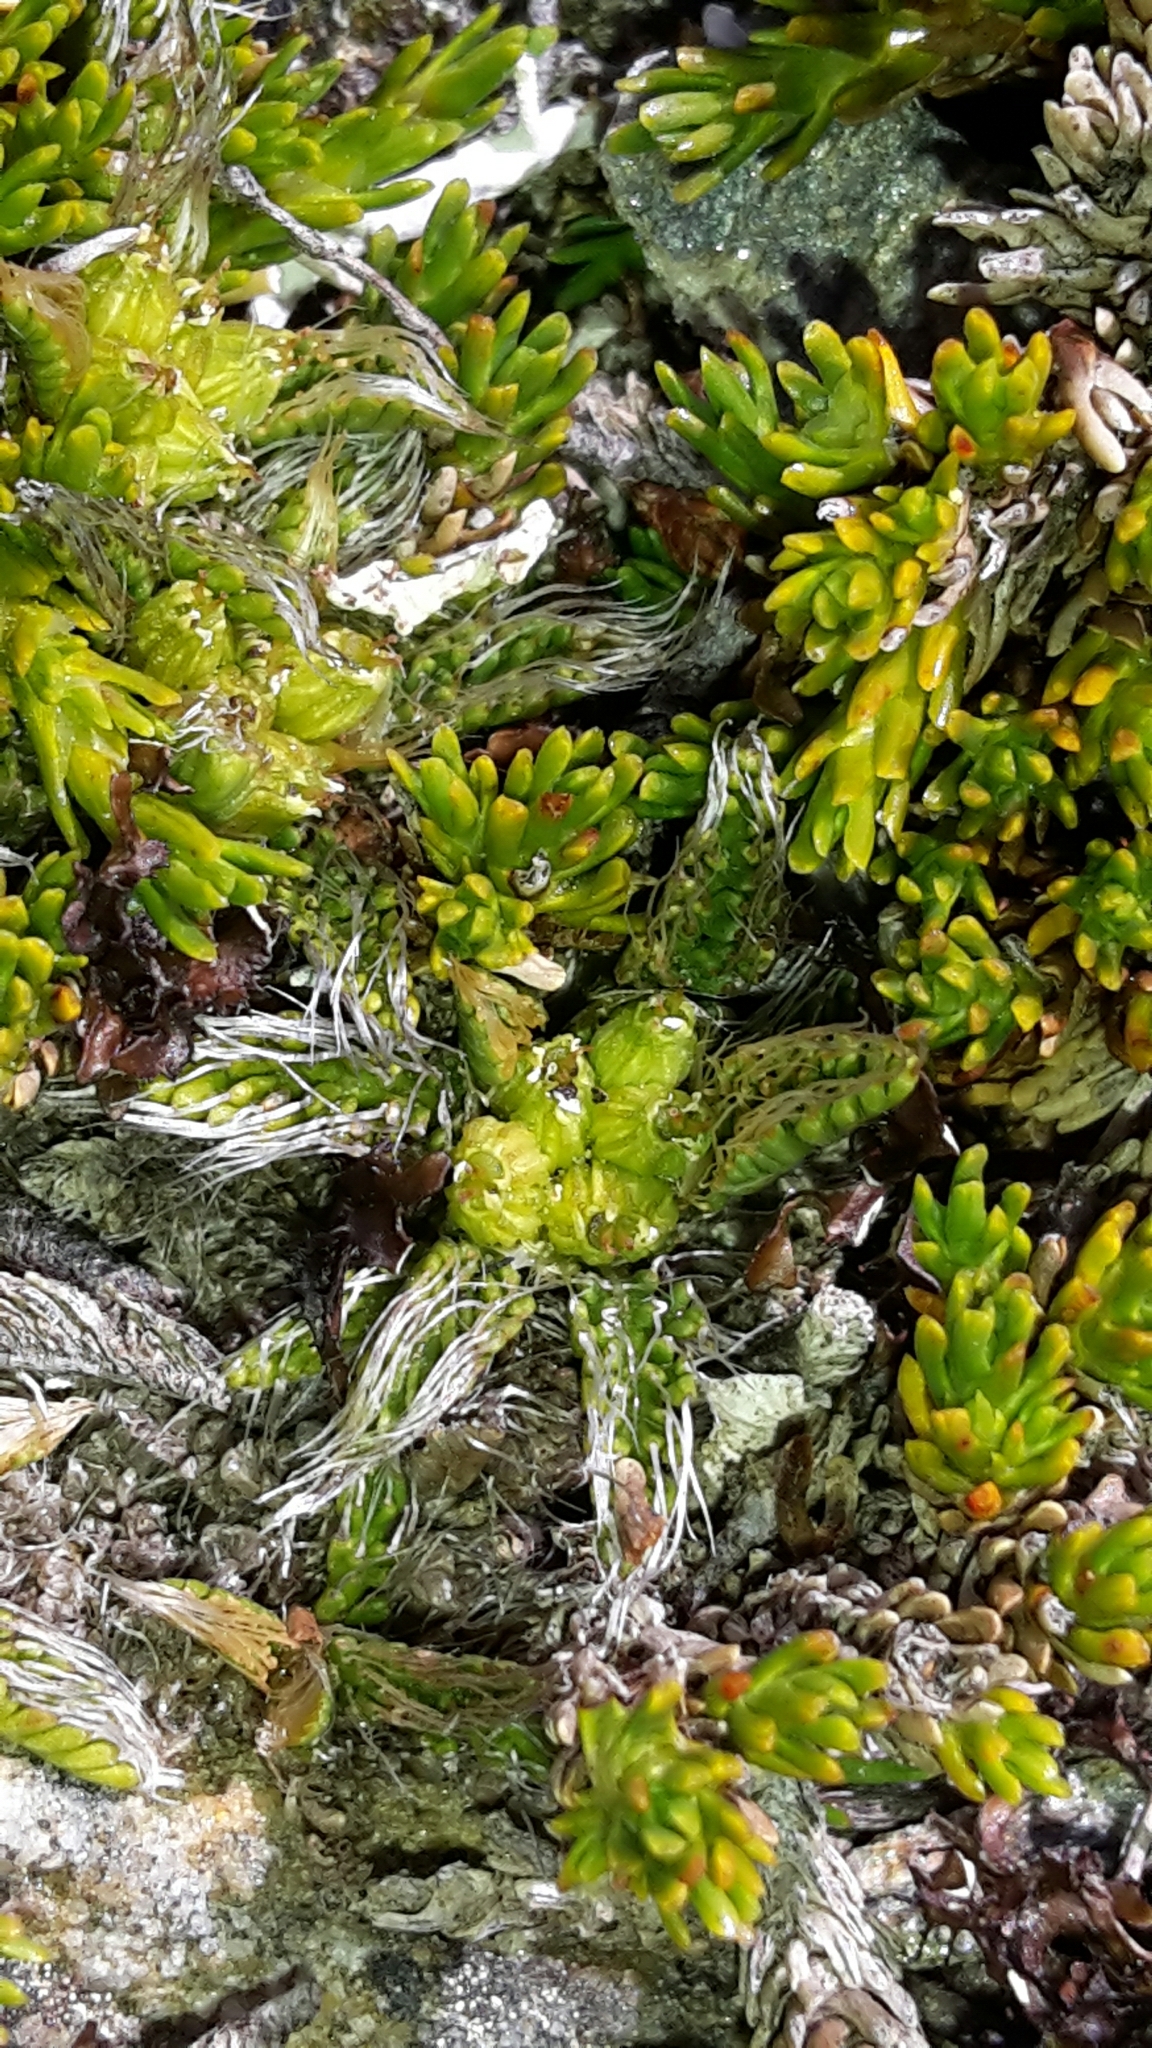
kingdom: Plantae
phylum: Tracheophyta
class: Magnoliopsida
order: Apiales
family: Apiaceae
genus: Anisotome
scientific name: Anisotome imbricata
